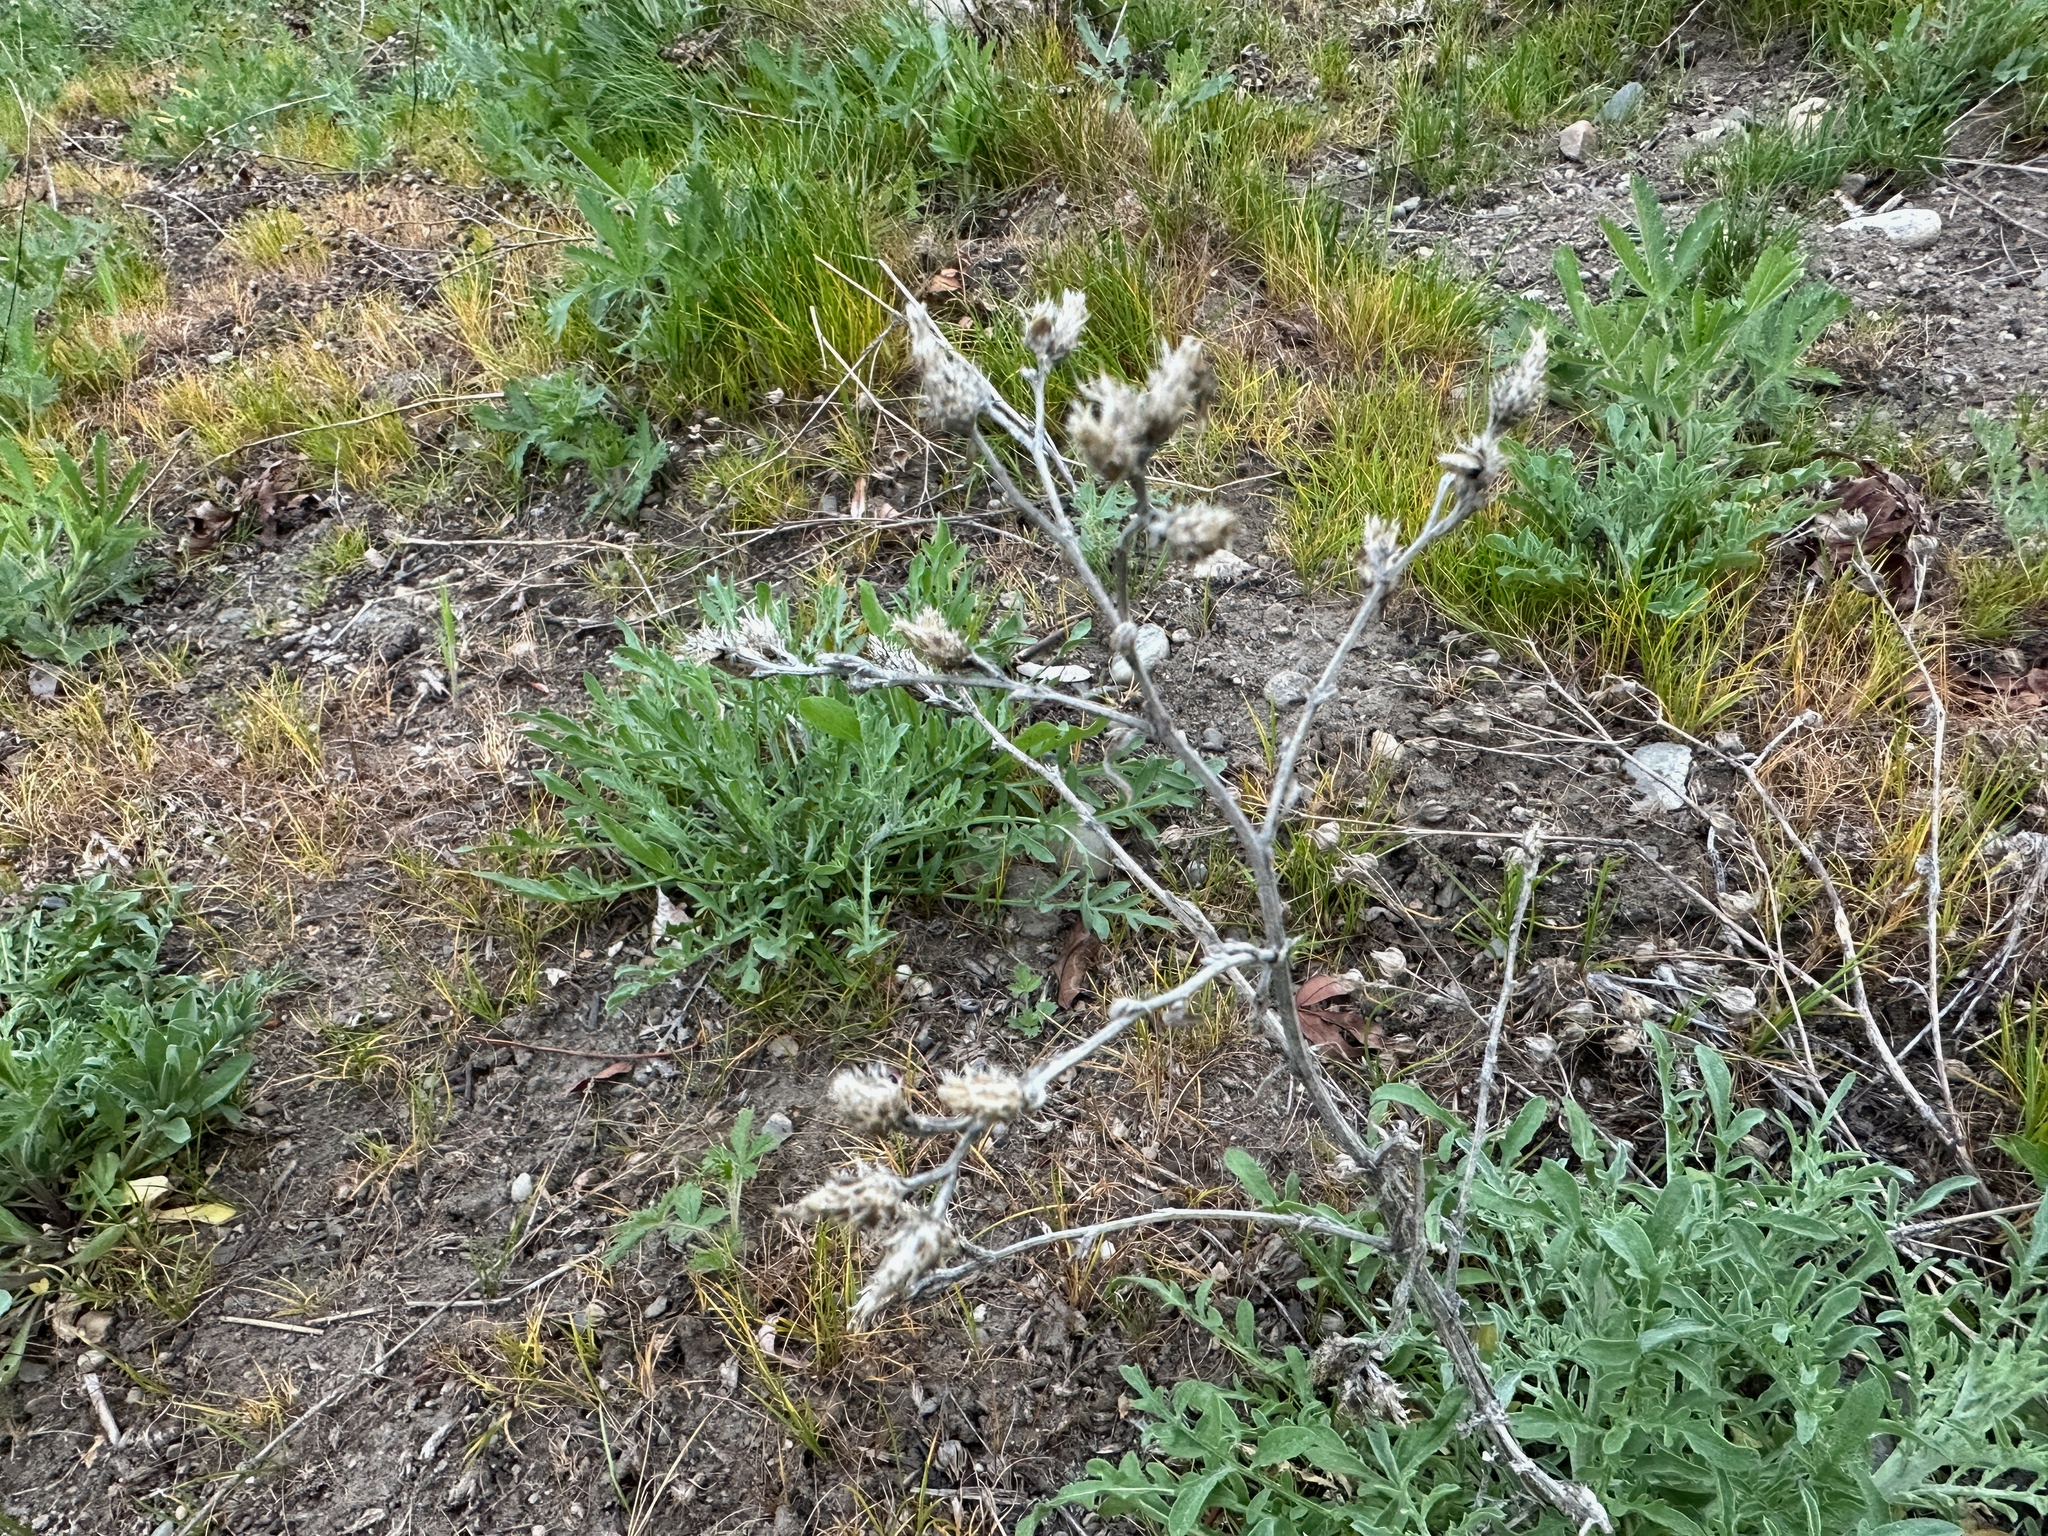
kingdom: Plantae
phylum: Tracheophyta
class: Magnoliopsida
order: Asterales
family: Asteraceae
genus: Centaurea
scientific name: Centaurea diffusa
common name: Diffuse knapweed
